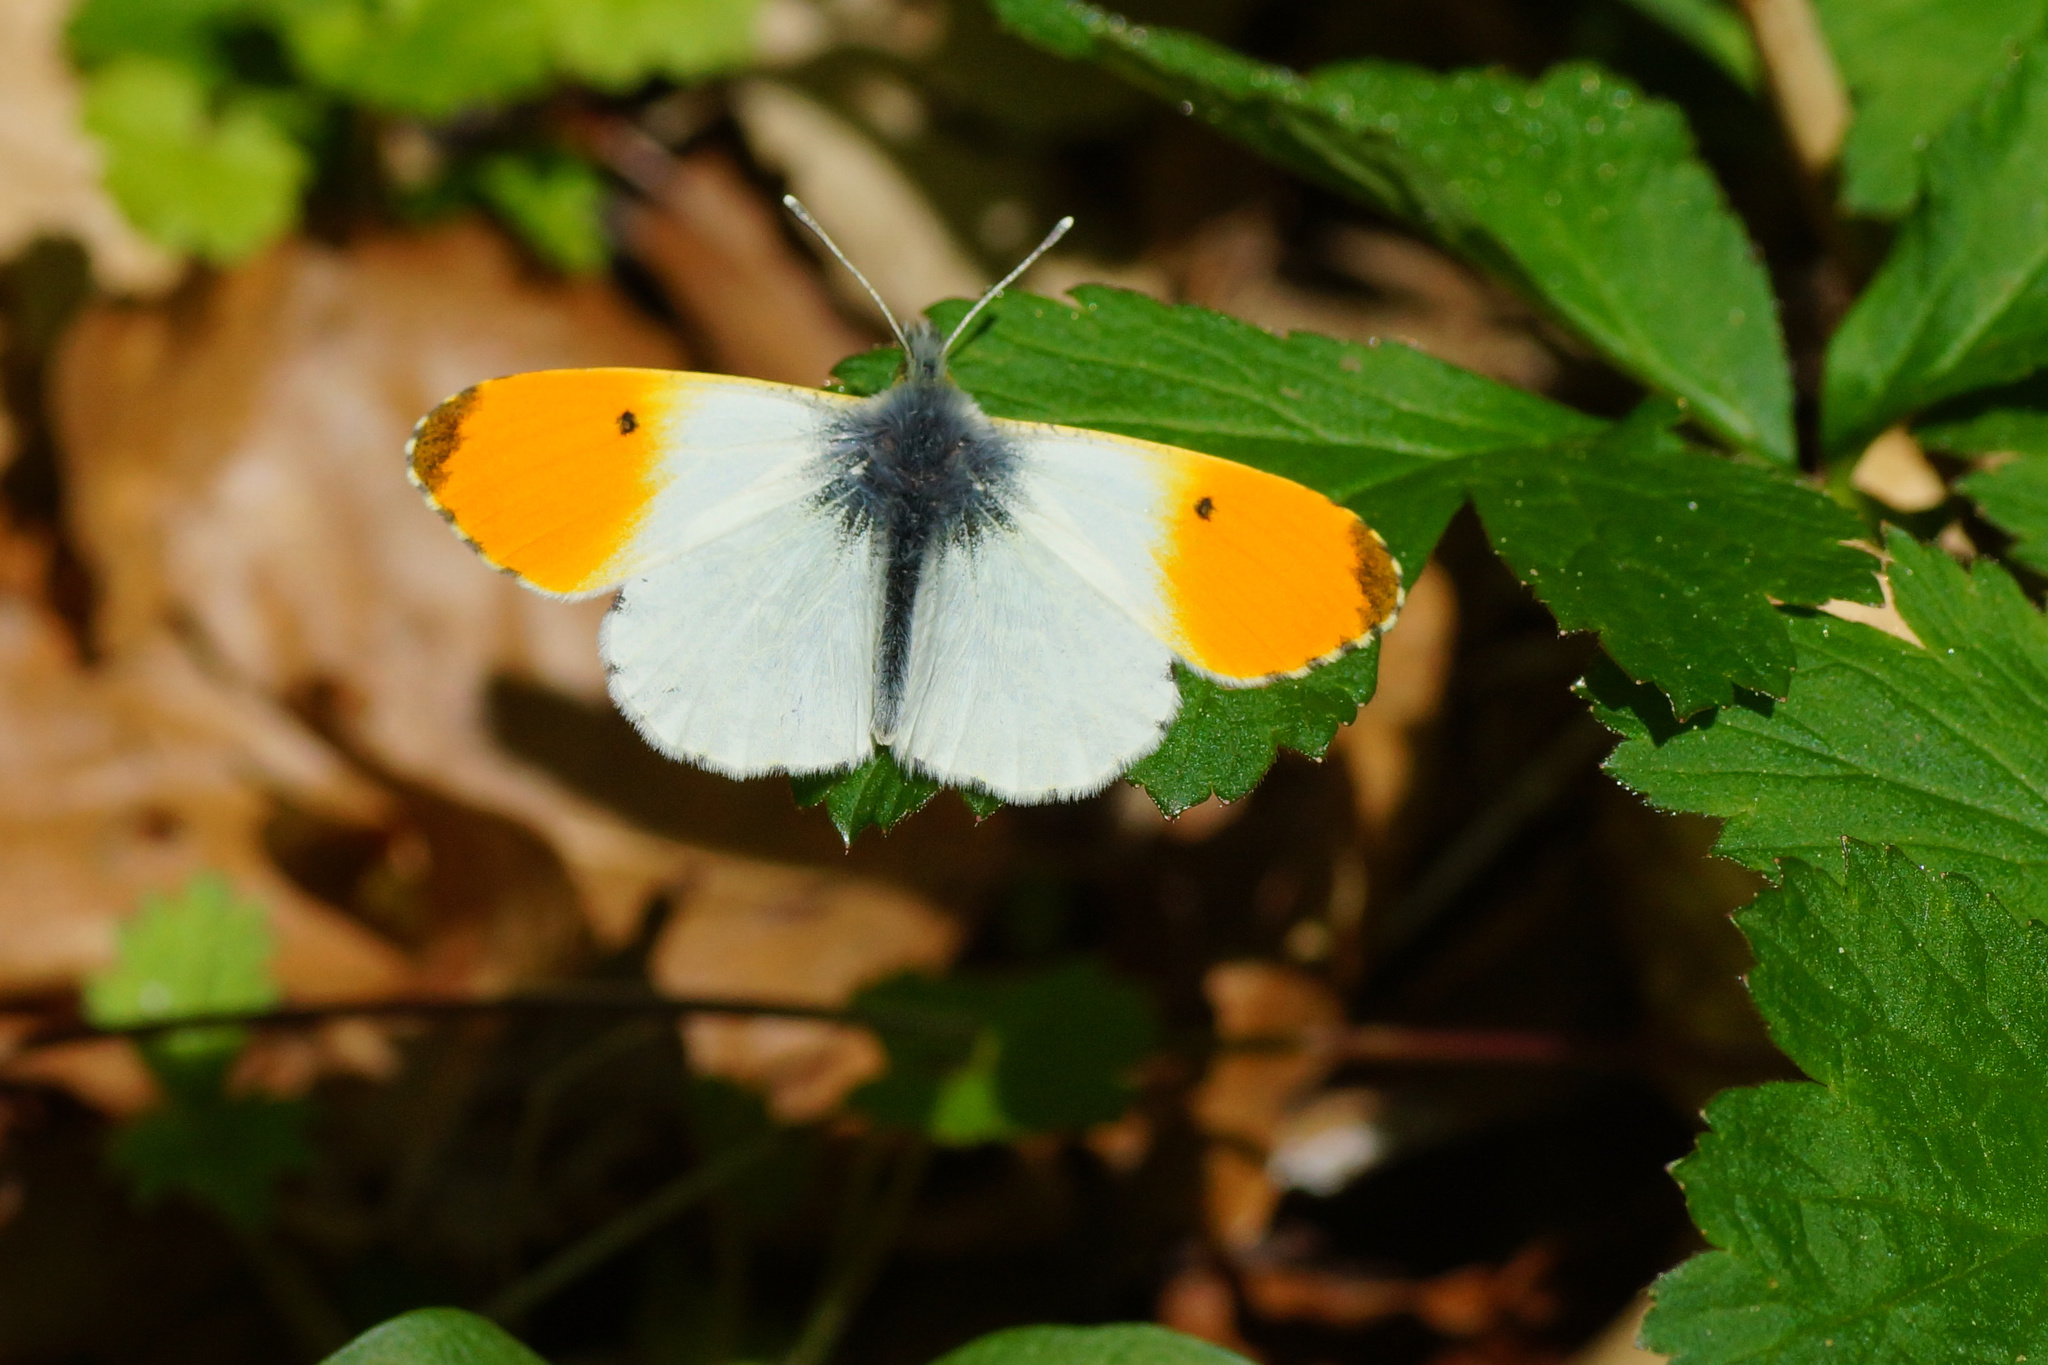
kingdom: Animalia
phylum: Arthropoda
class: Insecta
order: Lepidoptera
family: Pieridae
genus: Anthocharis
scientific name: Anthocharis cardamines
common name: Orange-tip
